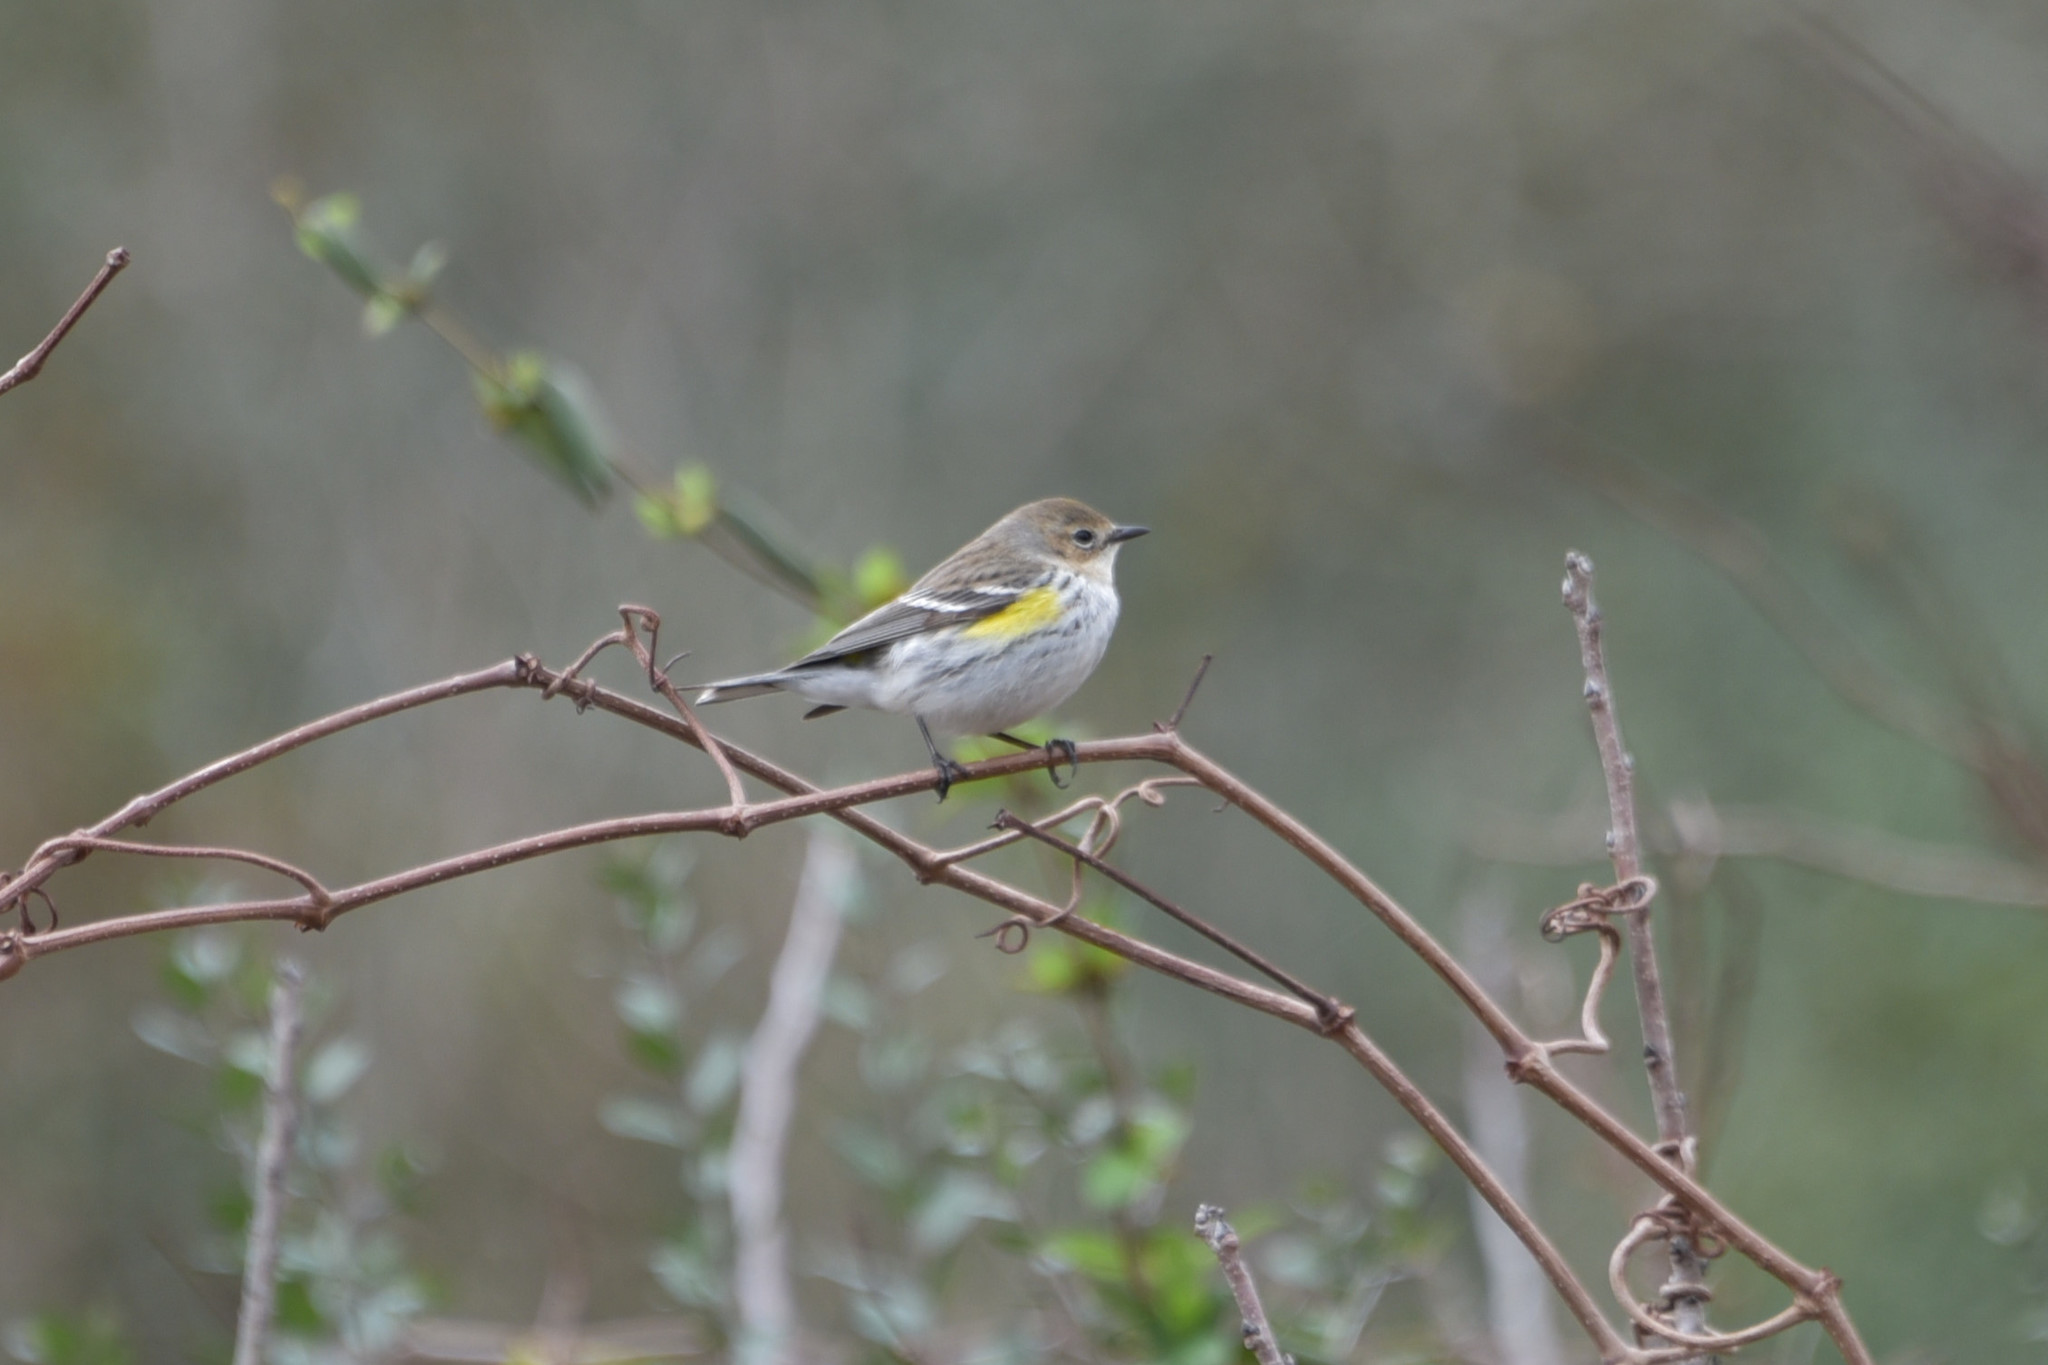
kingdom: Animalia
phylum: Chordata
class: Aves
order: Passeriformes
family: Parulidae
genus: Setophaga
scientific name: Setophaga coronata
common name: Myrtle warbler
